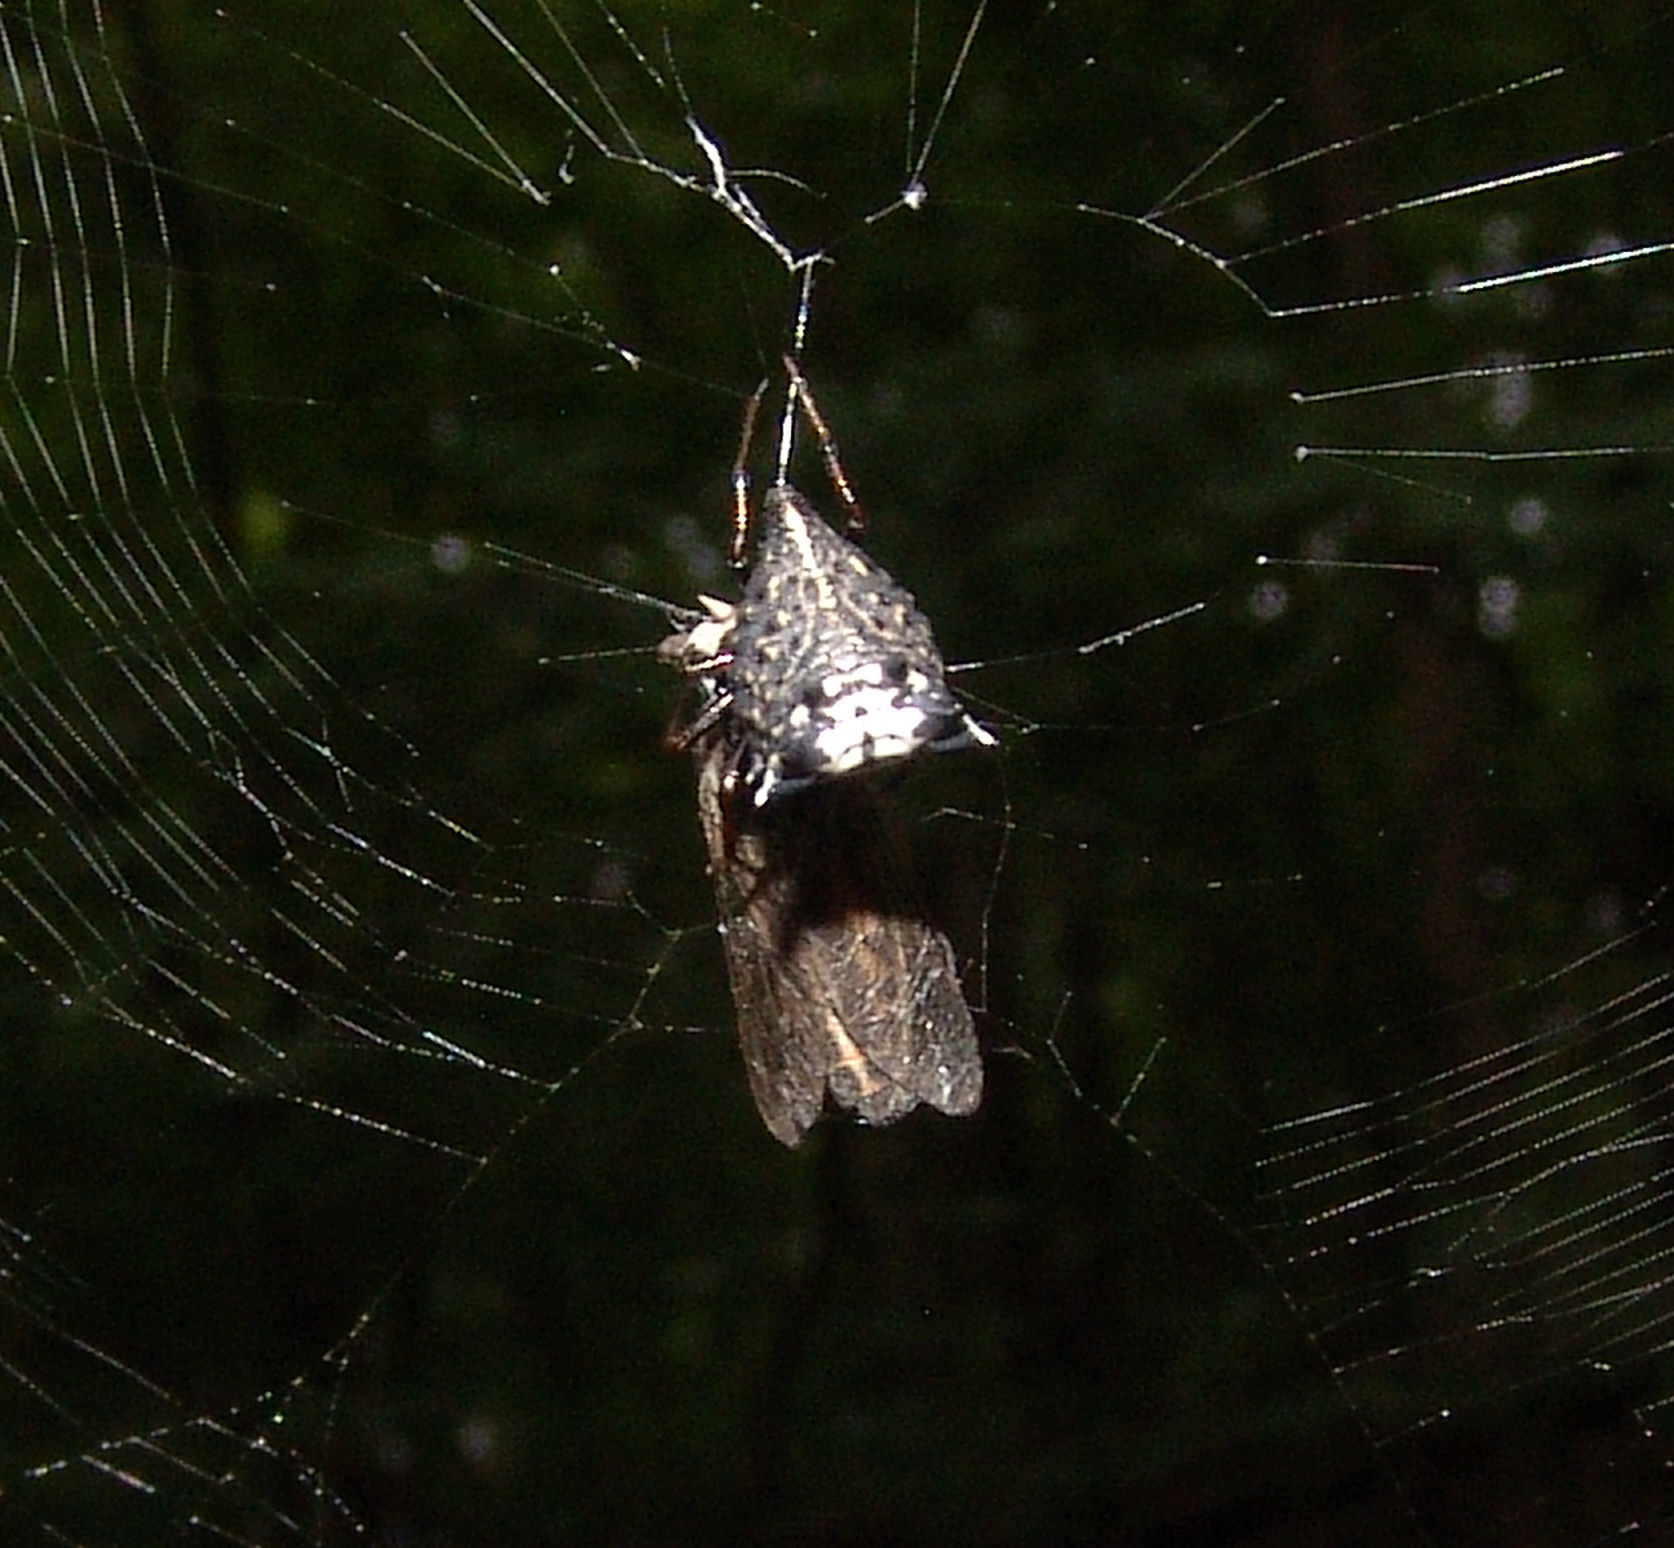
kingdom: Animalia
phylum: Arthropoda
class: Arachnida
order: Araneae
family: Araneidae
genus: Micrathena
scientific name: Micrathena gracilis
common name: Orb weavers
